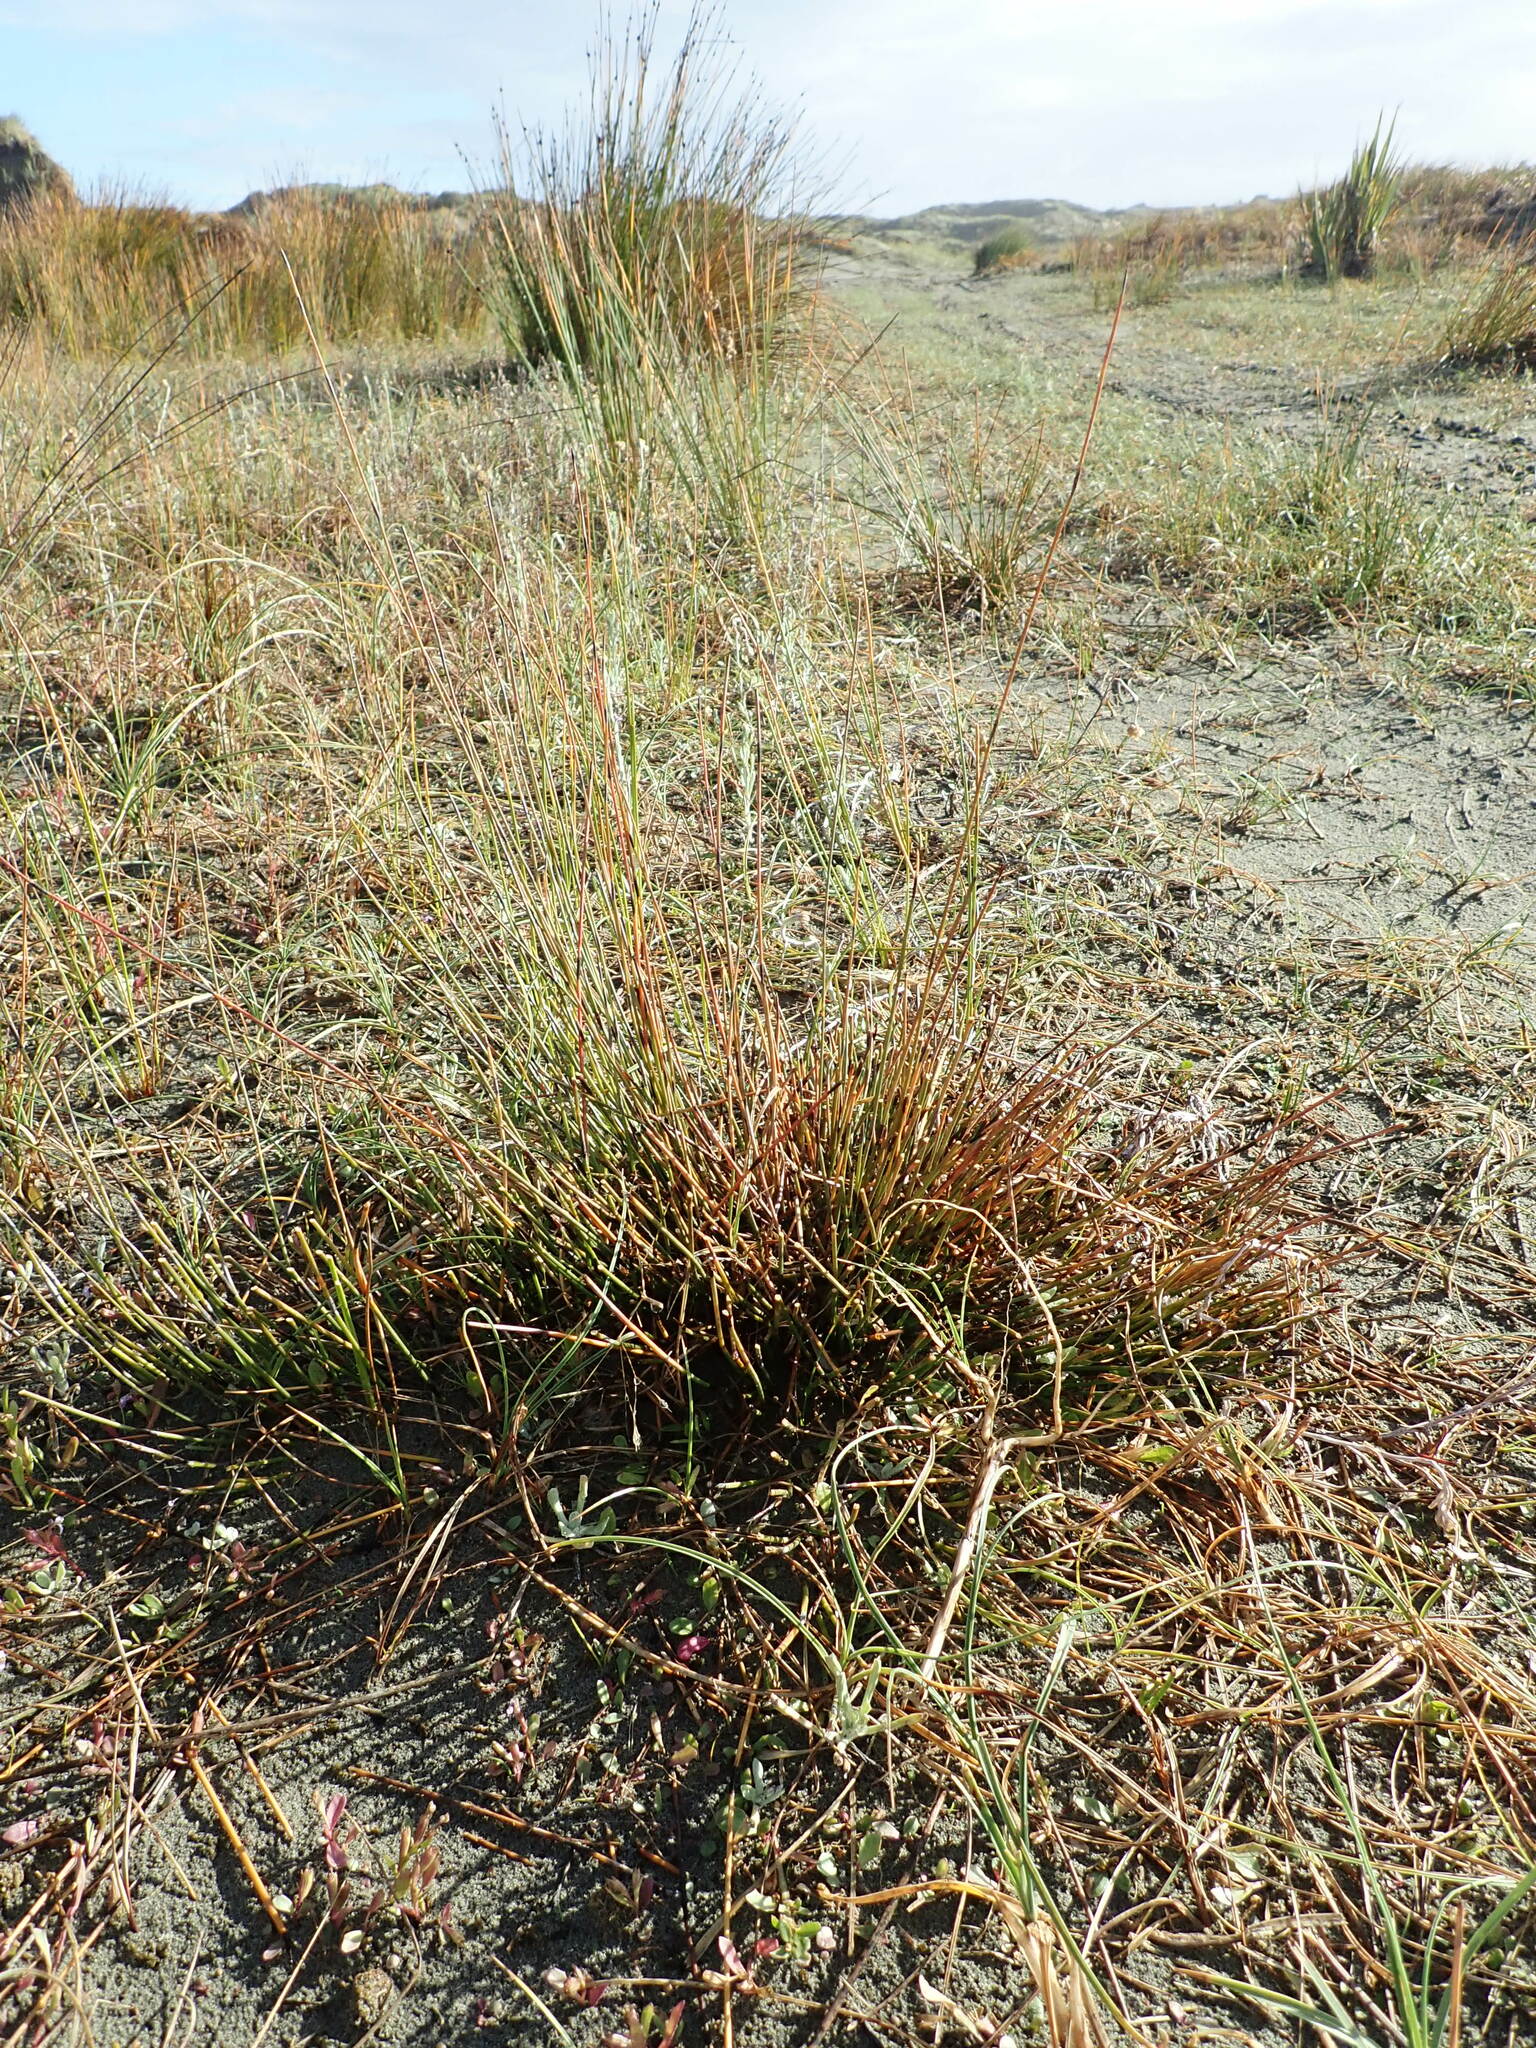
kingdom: Plantae
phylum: Tracheophyta
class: Liliopsida
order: Poales
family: Restionaceae
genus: Apodasmia
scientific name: Apodasmia similis
